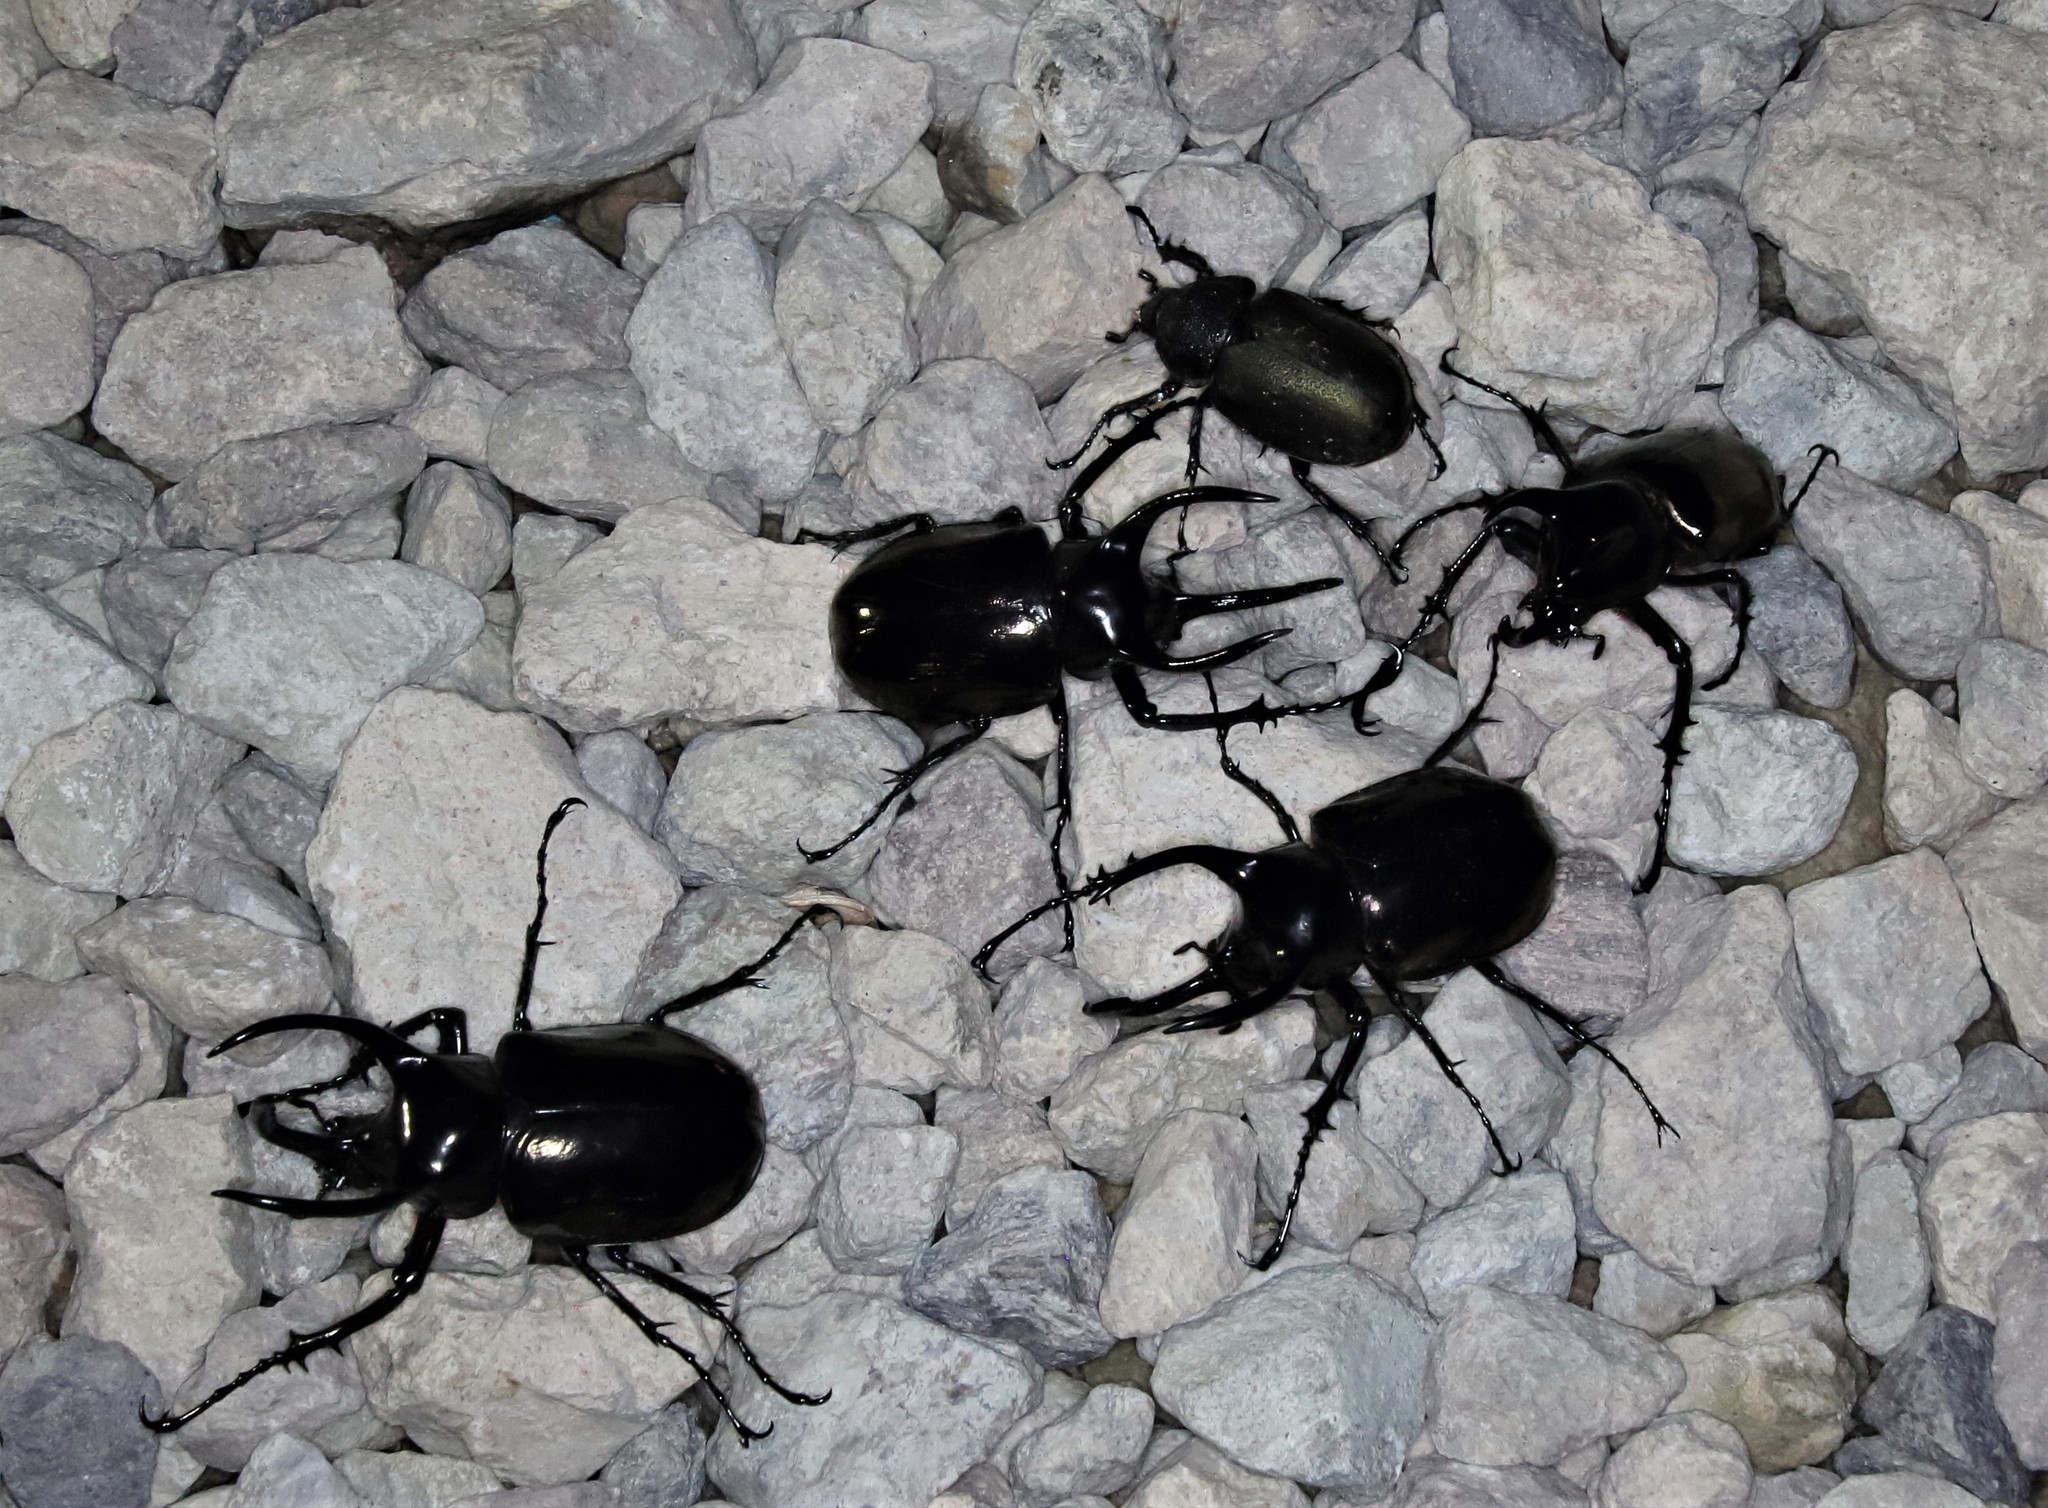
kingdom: Animalia
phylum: Arthropoda
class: Insecta
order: Coleoptera
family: Scarabaeidae
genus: Chalcosoma
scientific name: Chalcosoma atlas
